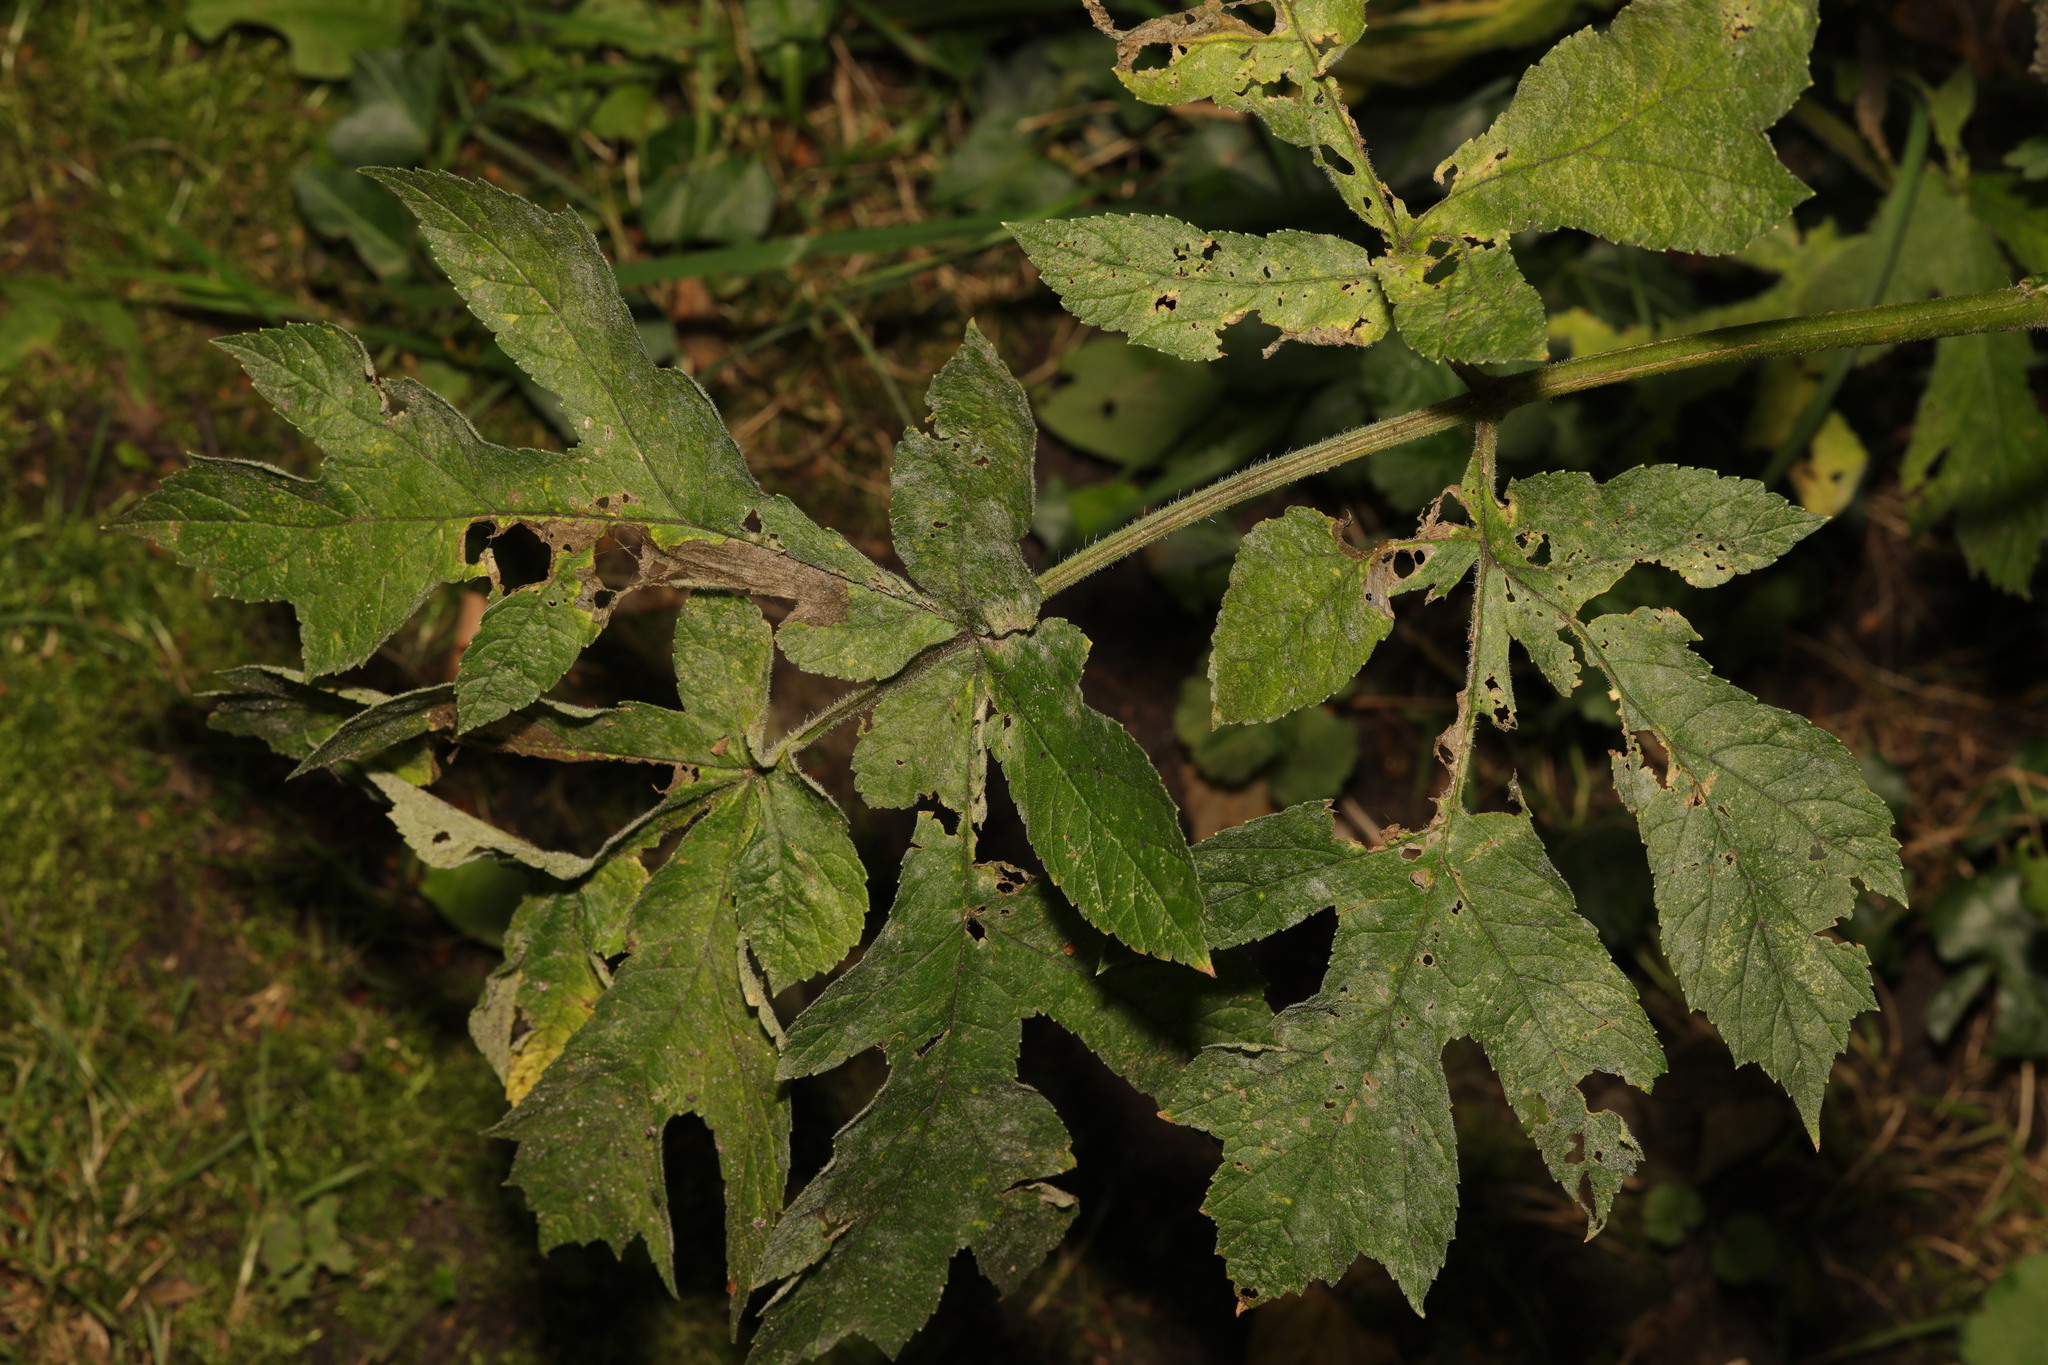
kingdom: Fungi
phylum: Ascomycota
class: Leotiomycetes
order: Helotiales
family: Erysiphaceae
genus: Erysiphe
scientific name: Erysiphe heraclei
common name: Umbellifer mildew
